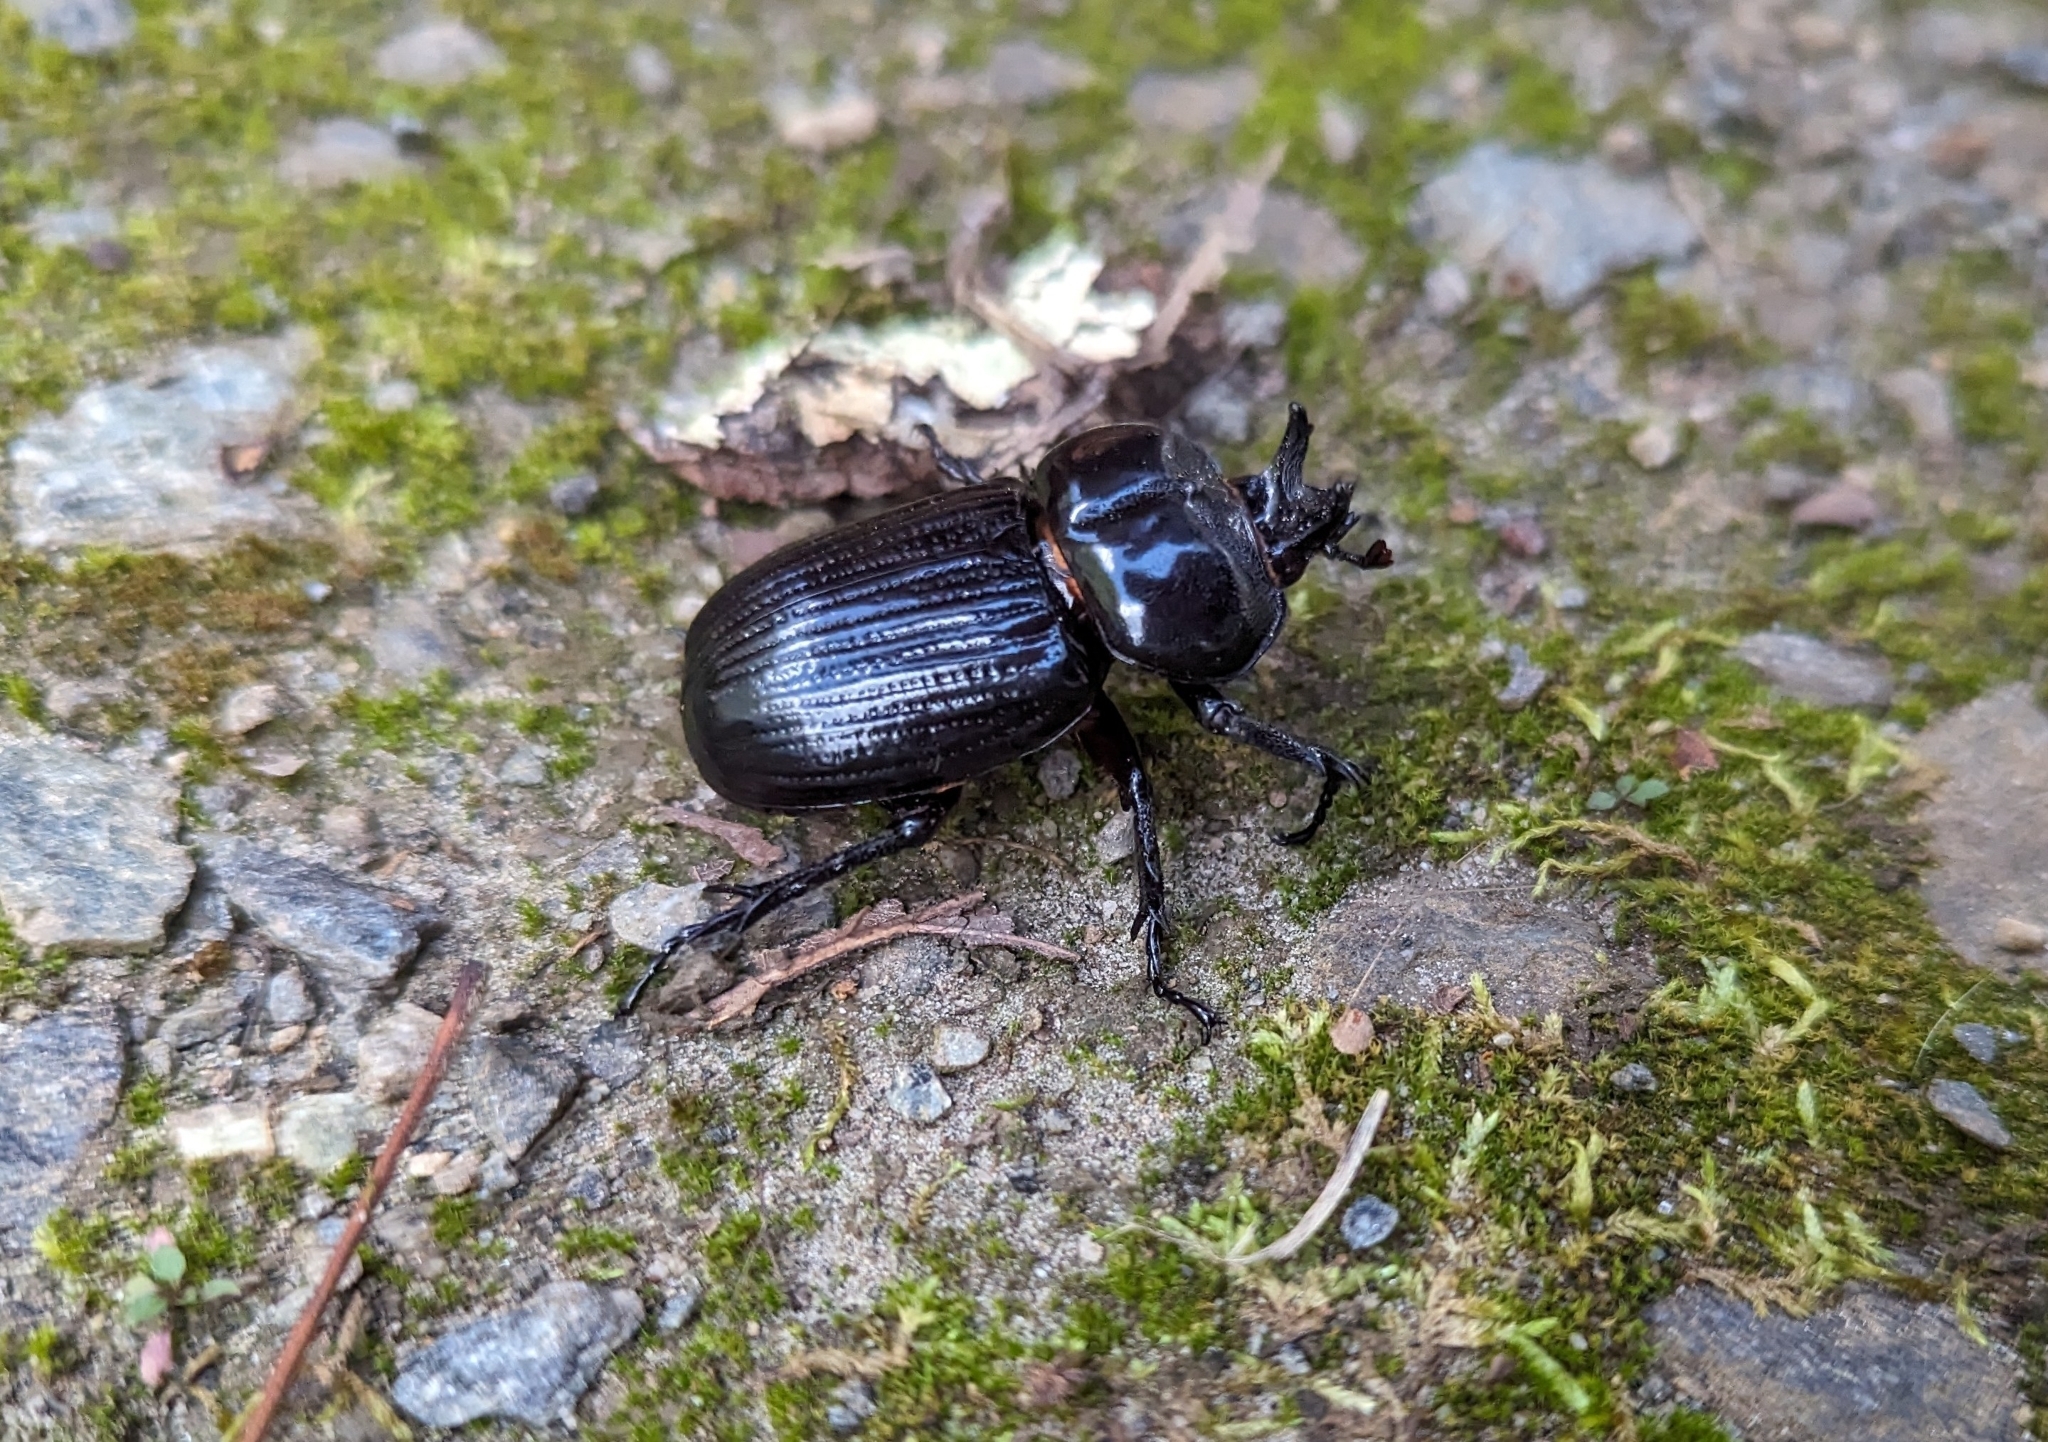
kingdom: Animalia
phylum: Arthropoda
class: Insecta
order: Coleoptera
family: Scarabaeidae
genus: Phileurus
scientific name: Phileurus truncatus
